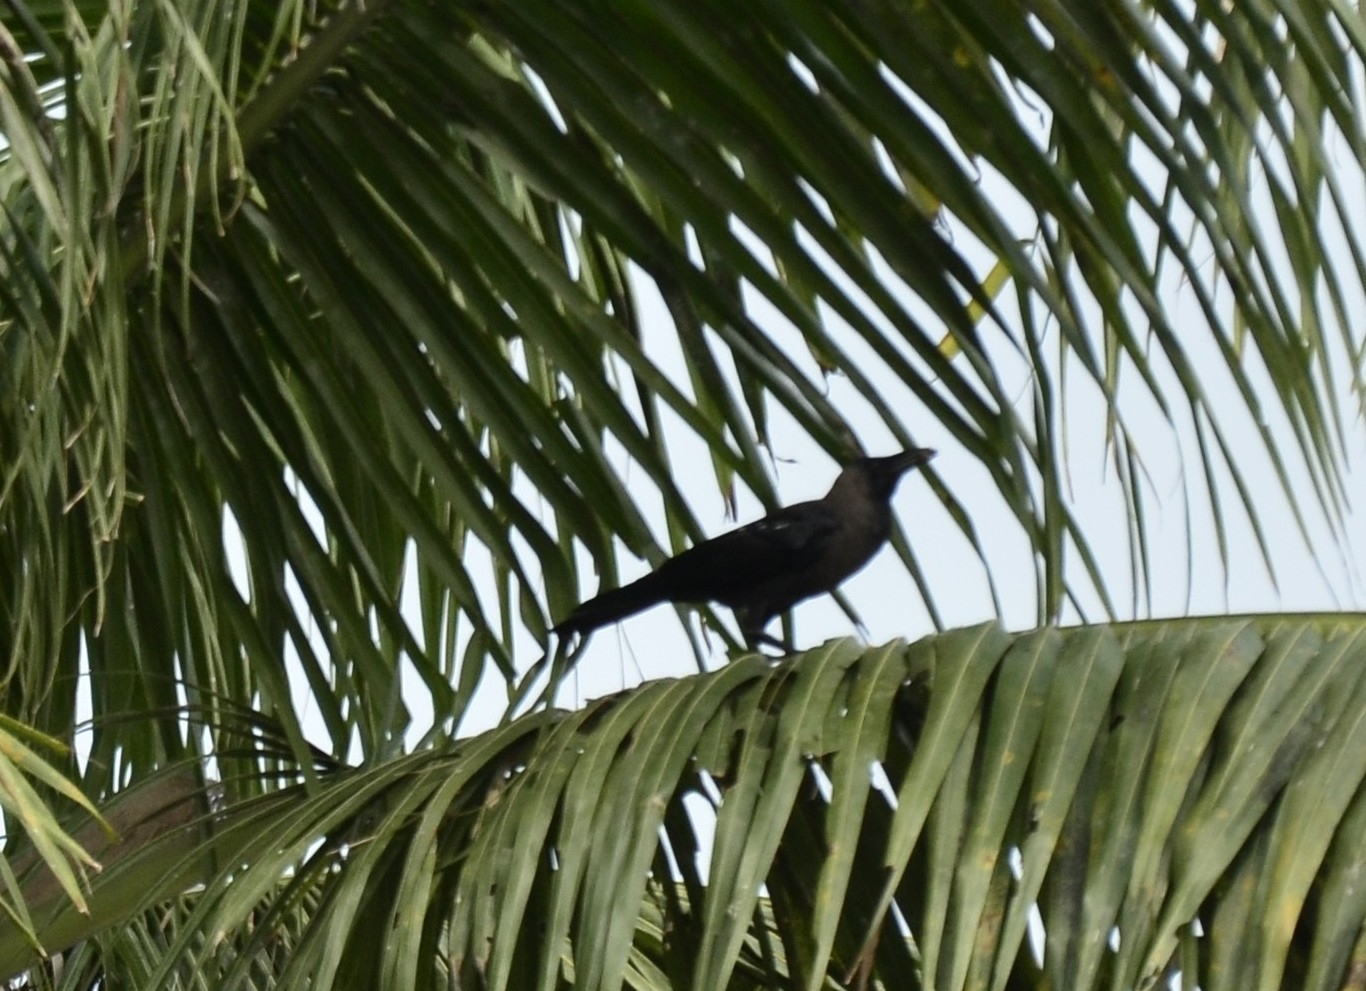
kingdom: Animalia
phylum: Chordata
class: Aves
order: Passeriformes
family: Corvidae
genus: Corvus
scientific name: Corvus splendens
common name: House crow
